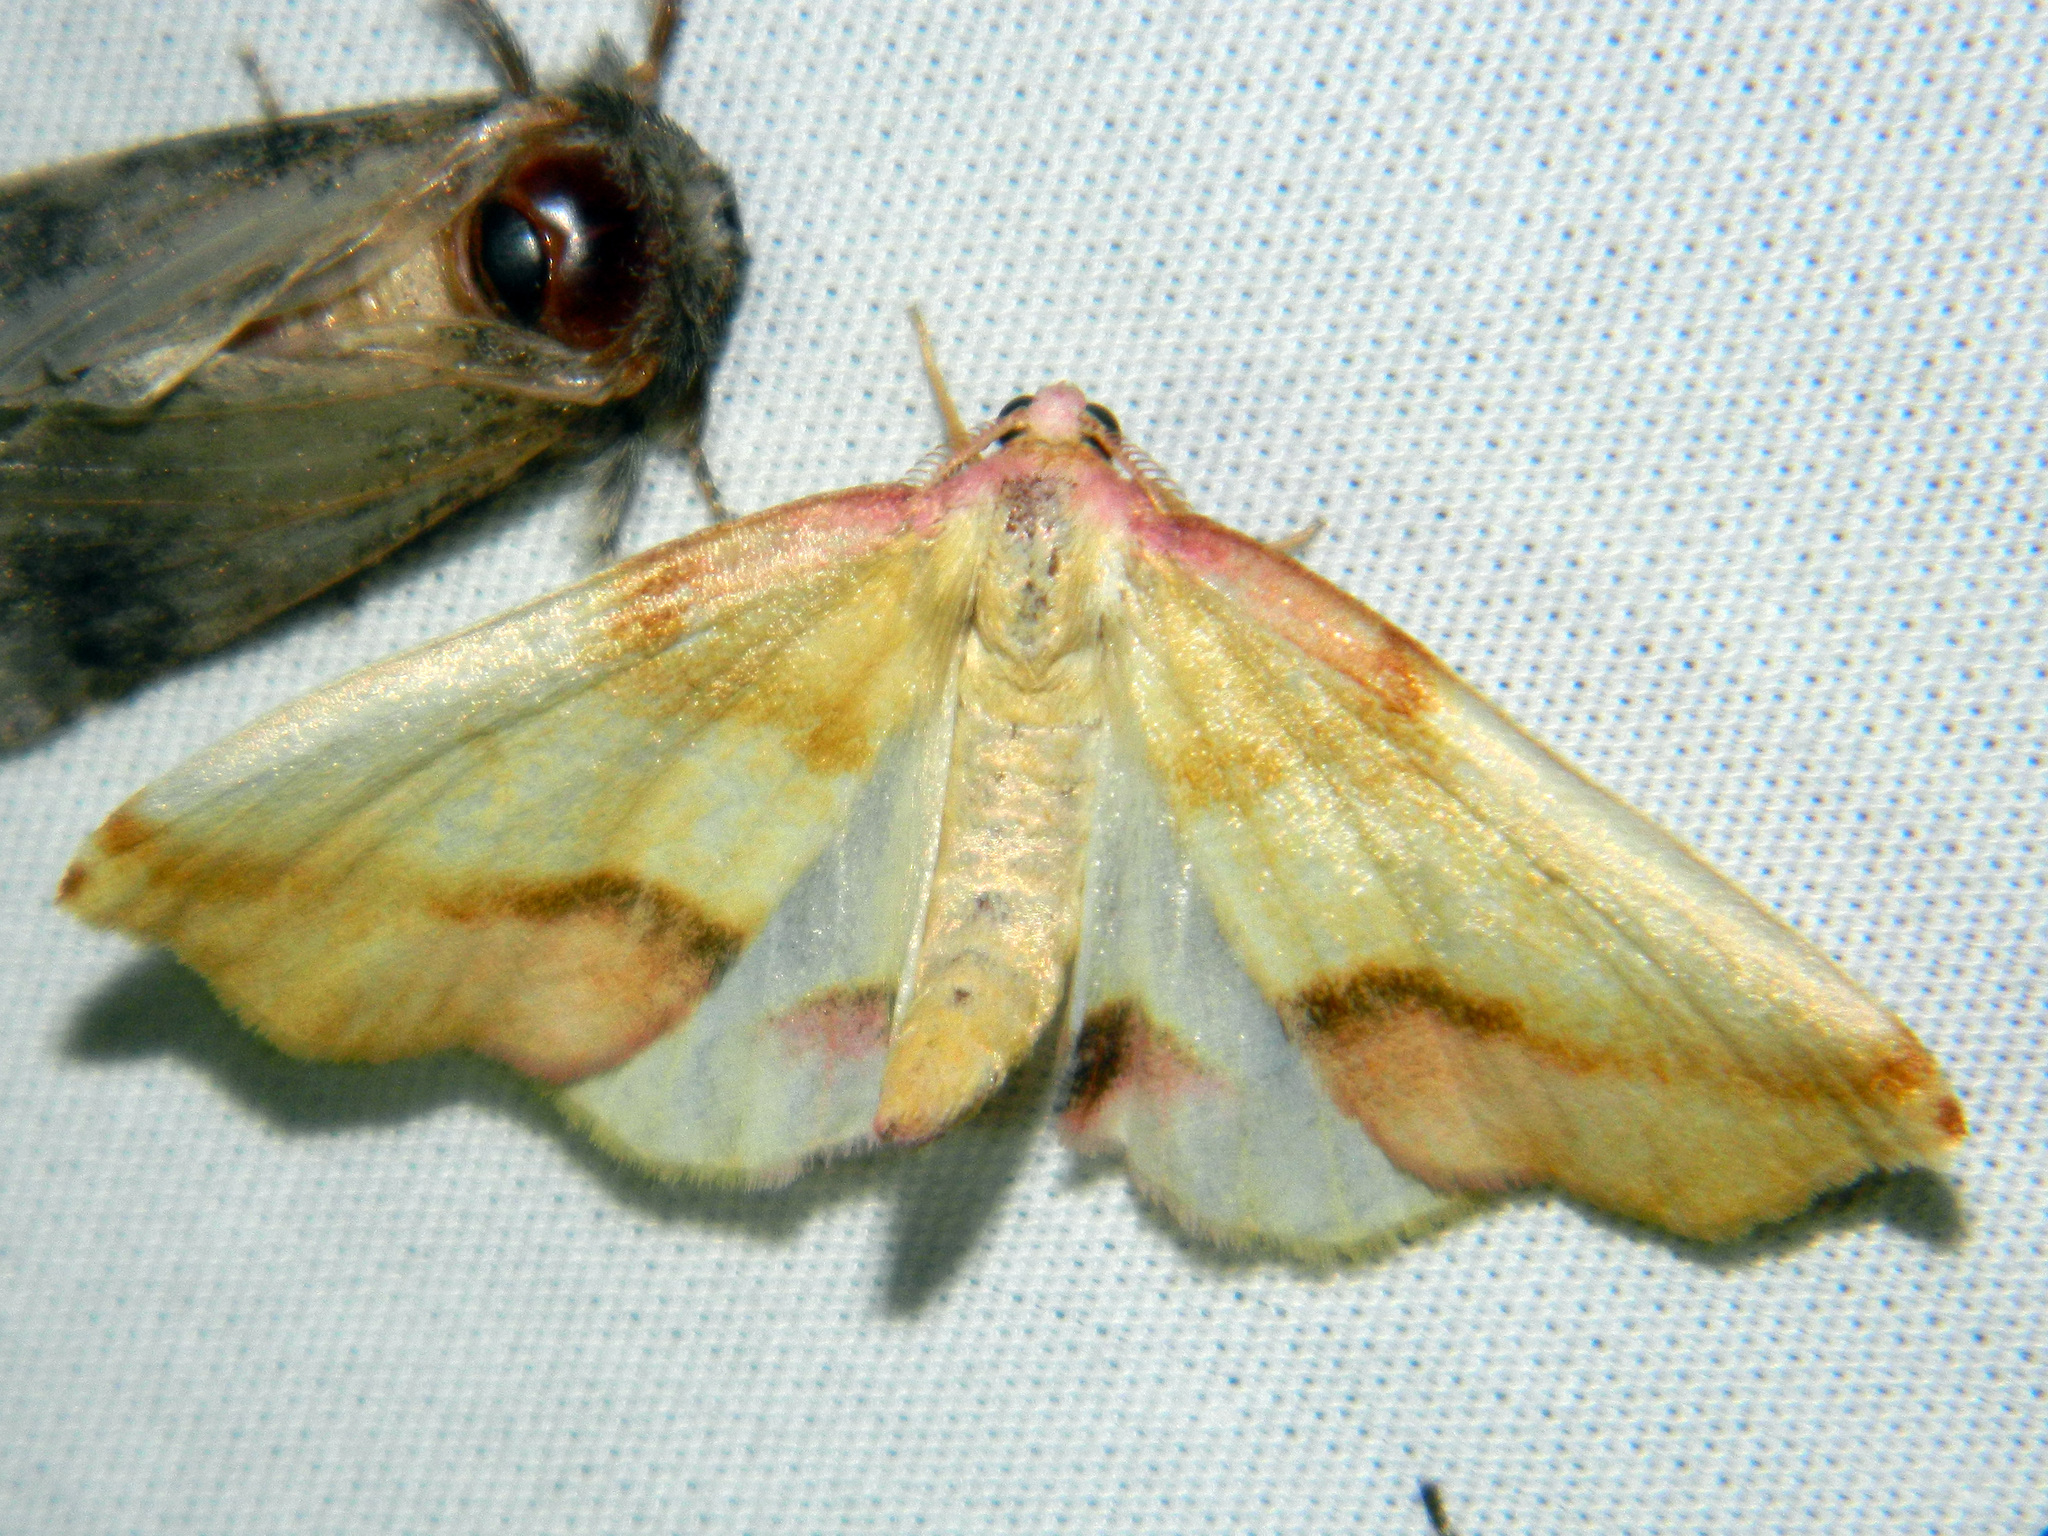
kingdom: Animalia
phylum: Arthropoda
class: Insecta
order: Lepidoptera
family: Geometridae
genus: Plagodis
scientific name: Plagodis serinaria
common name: Lemon plagodis
